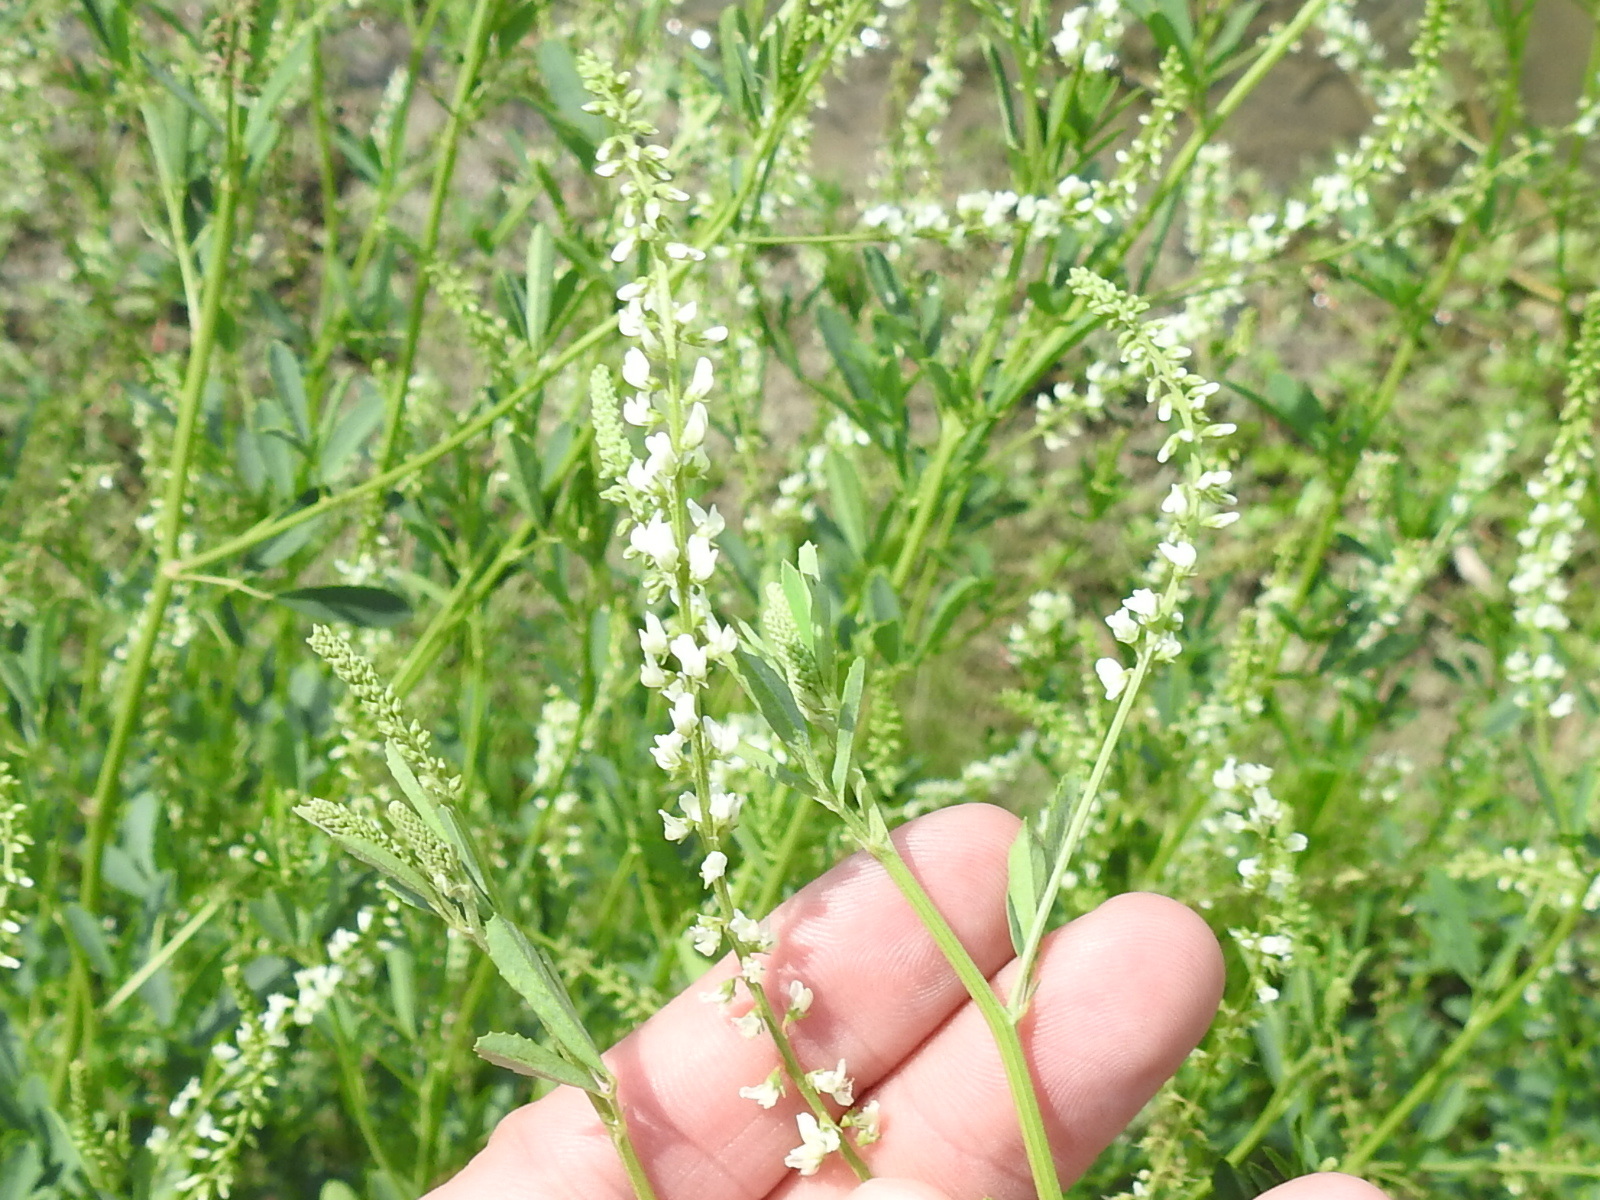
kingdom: Plantae
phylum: Tracheophyta
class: Magnoliopsida
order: Fabales
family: Fabaceae
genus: Melilotus
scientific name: Melilotus albus
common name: White melilot
